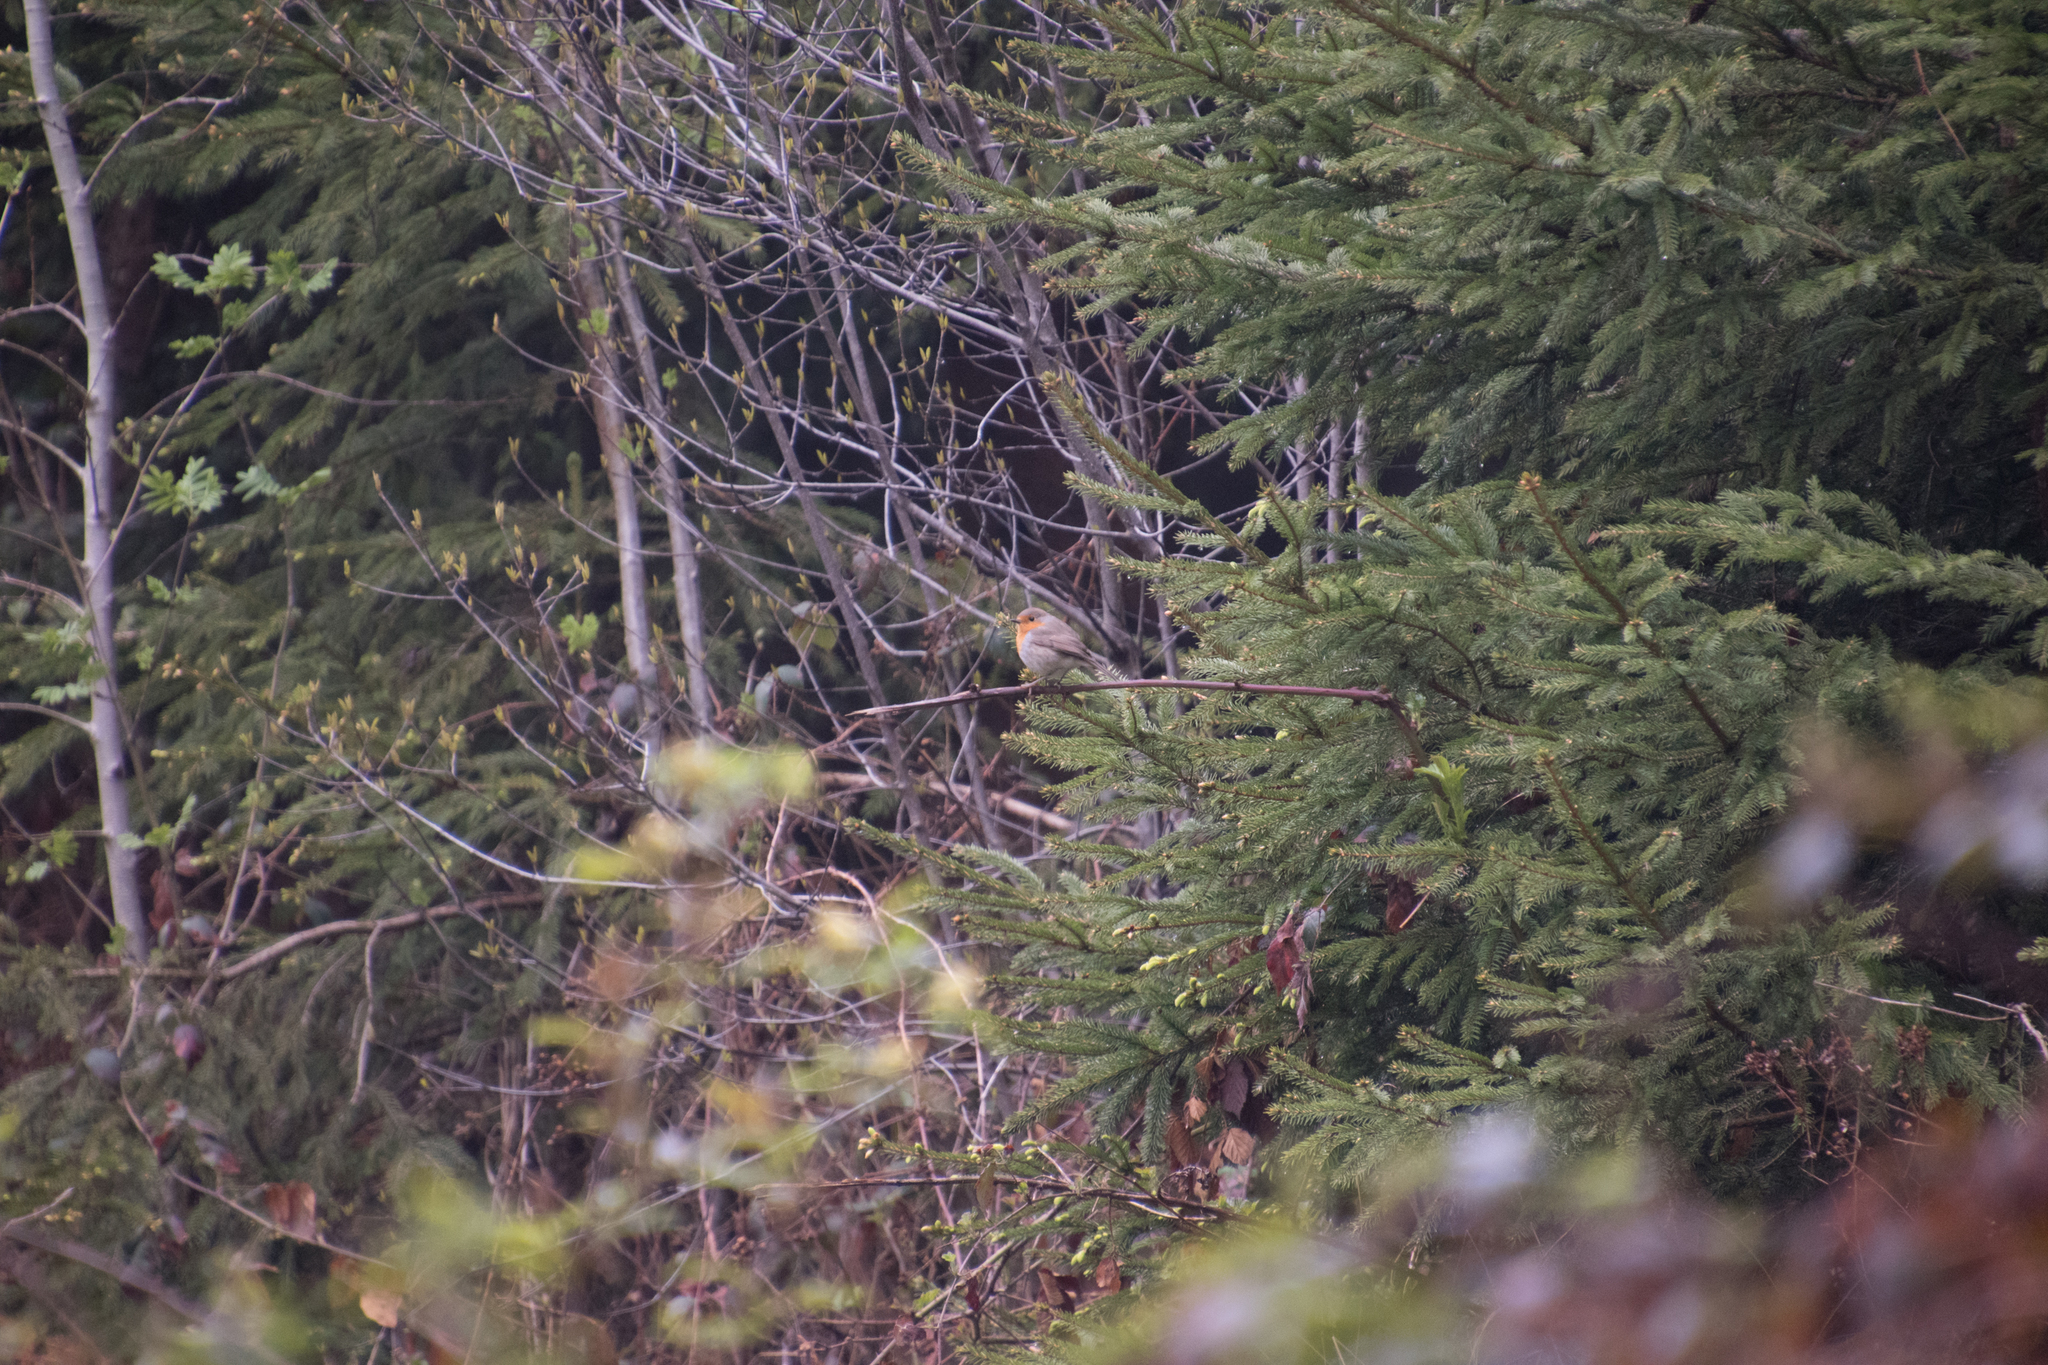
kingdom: Animalia
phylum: Chordata
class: Aves
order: Passeriformes
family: Muscicapidae
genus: Erithacus
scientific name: Erithacus rubecula
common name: European robin
